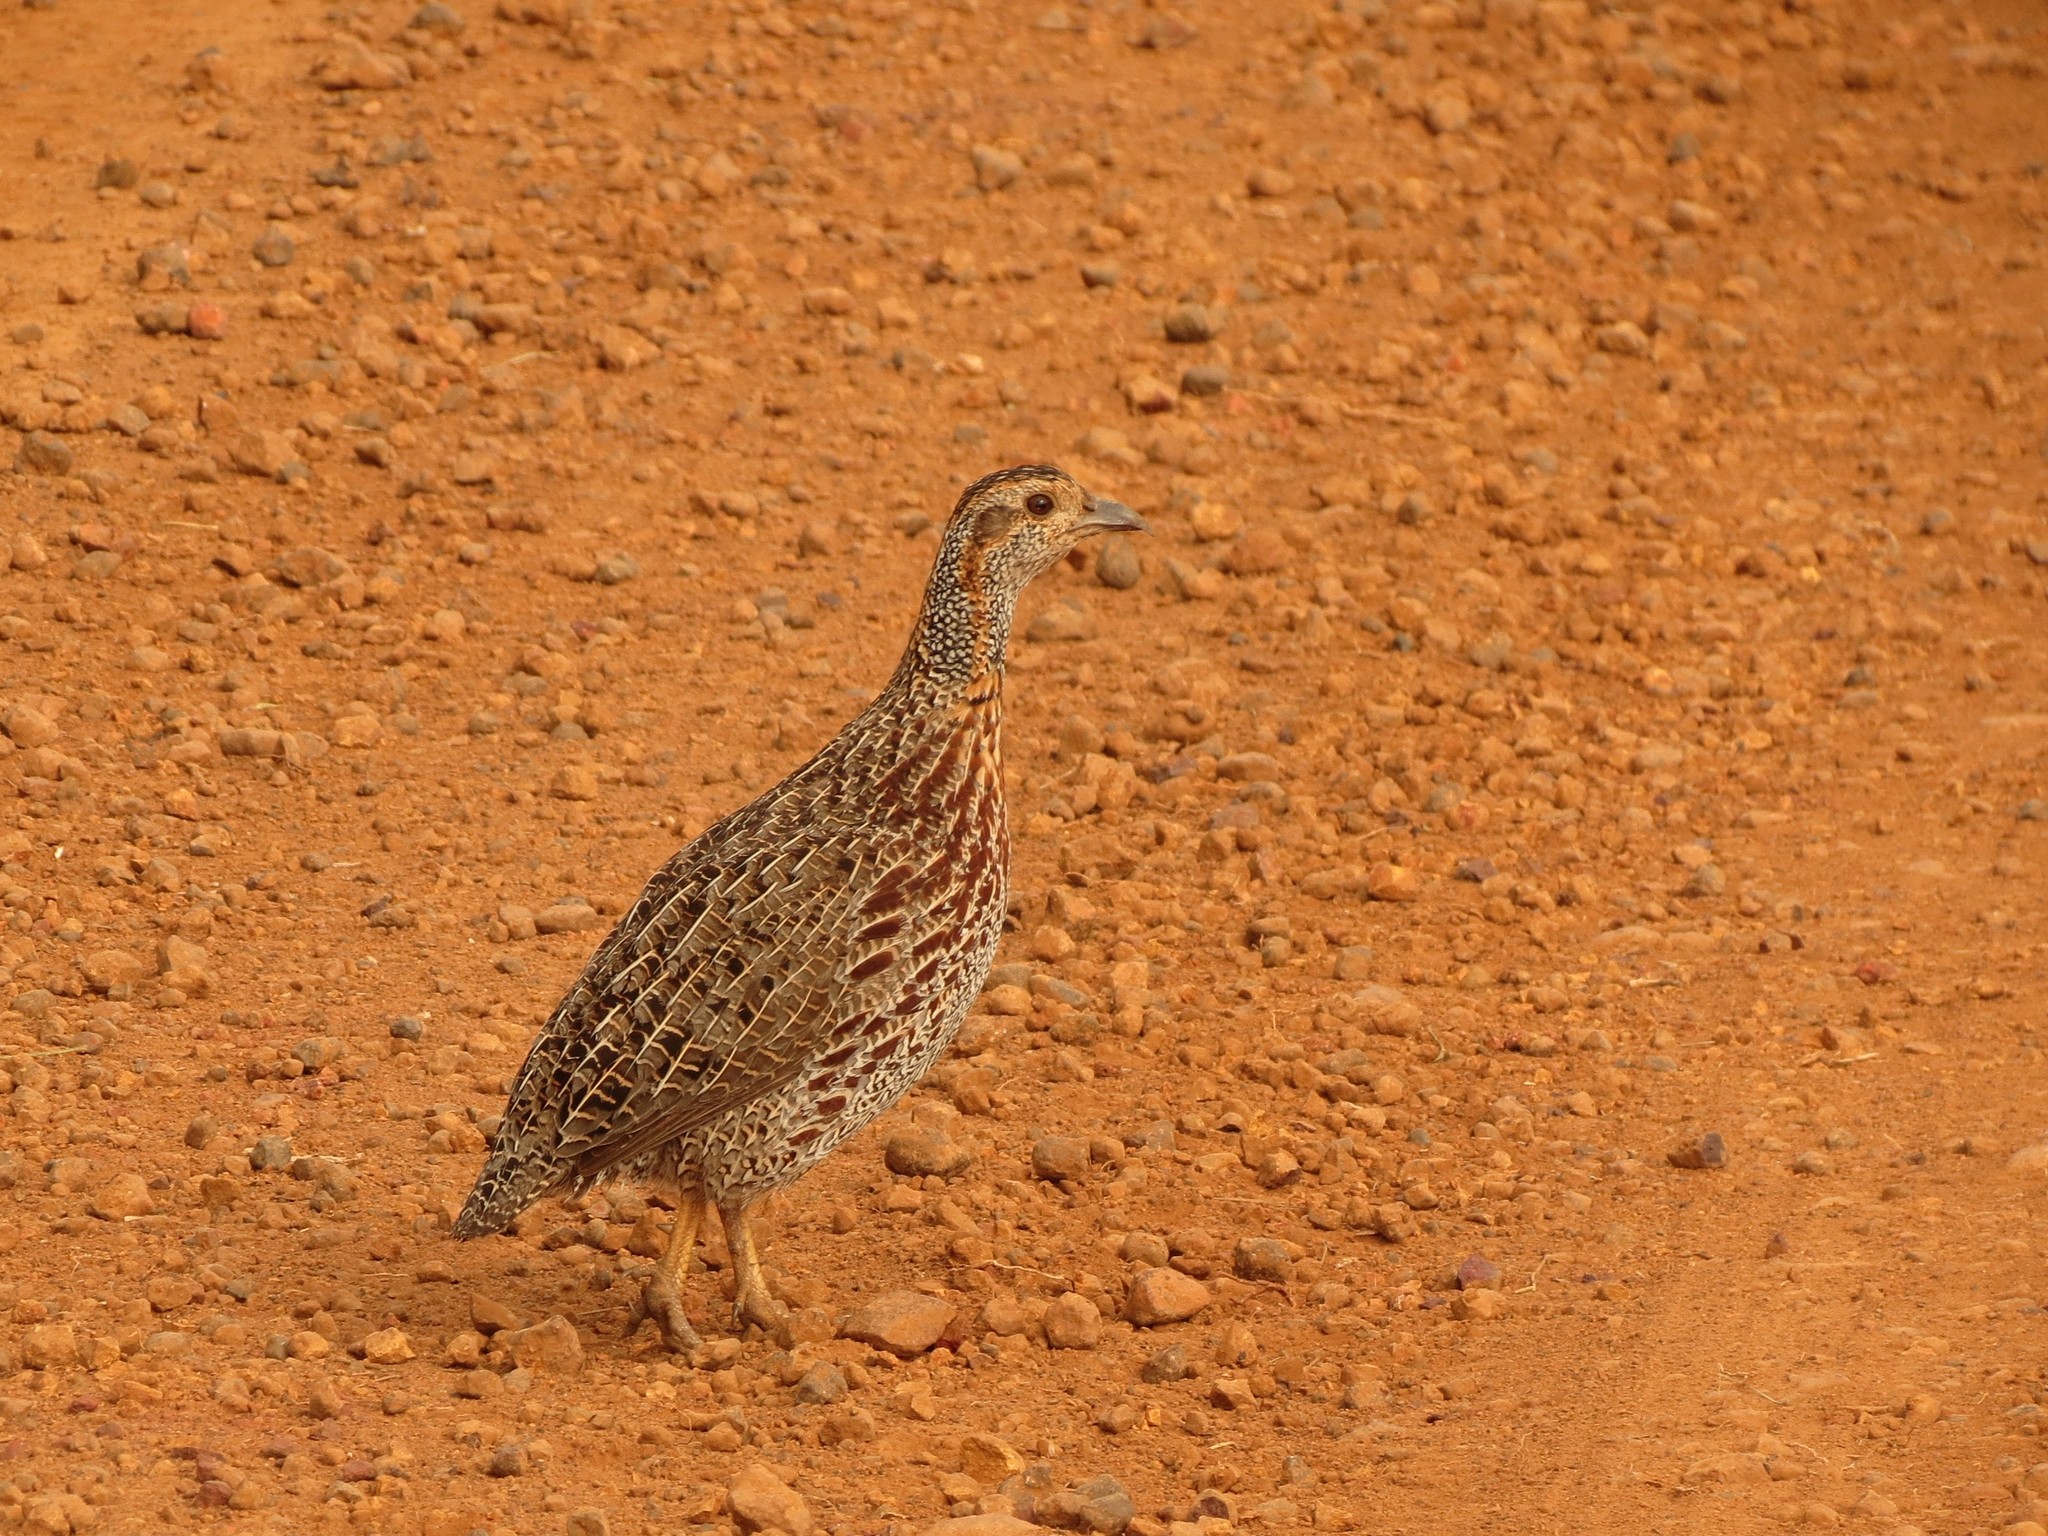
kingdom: Animalia
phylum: Chordata
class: Aves
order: Galliformes
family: Phasianidae
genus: Scleroptila
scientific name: Scleroptila afra
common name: Grey-winged francolin
